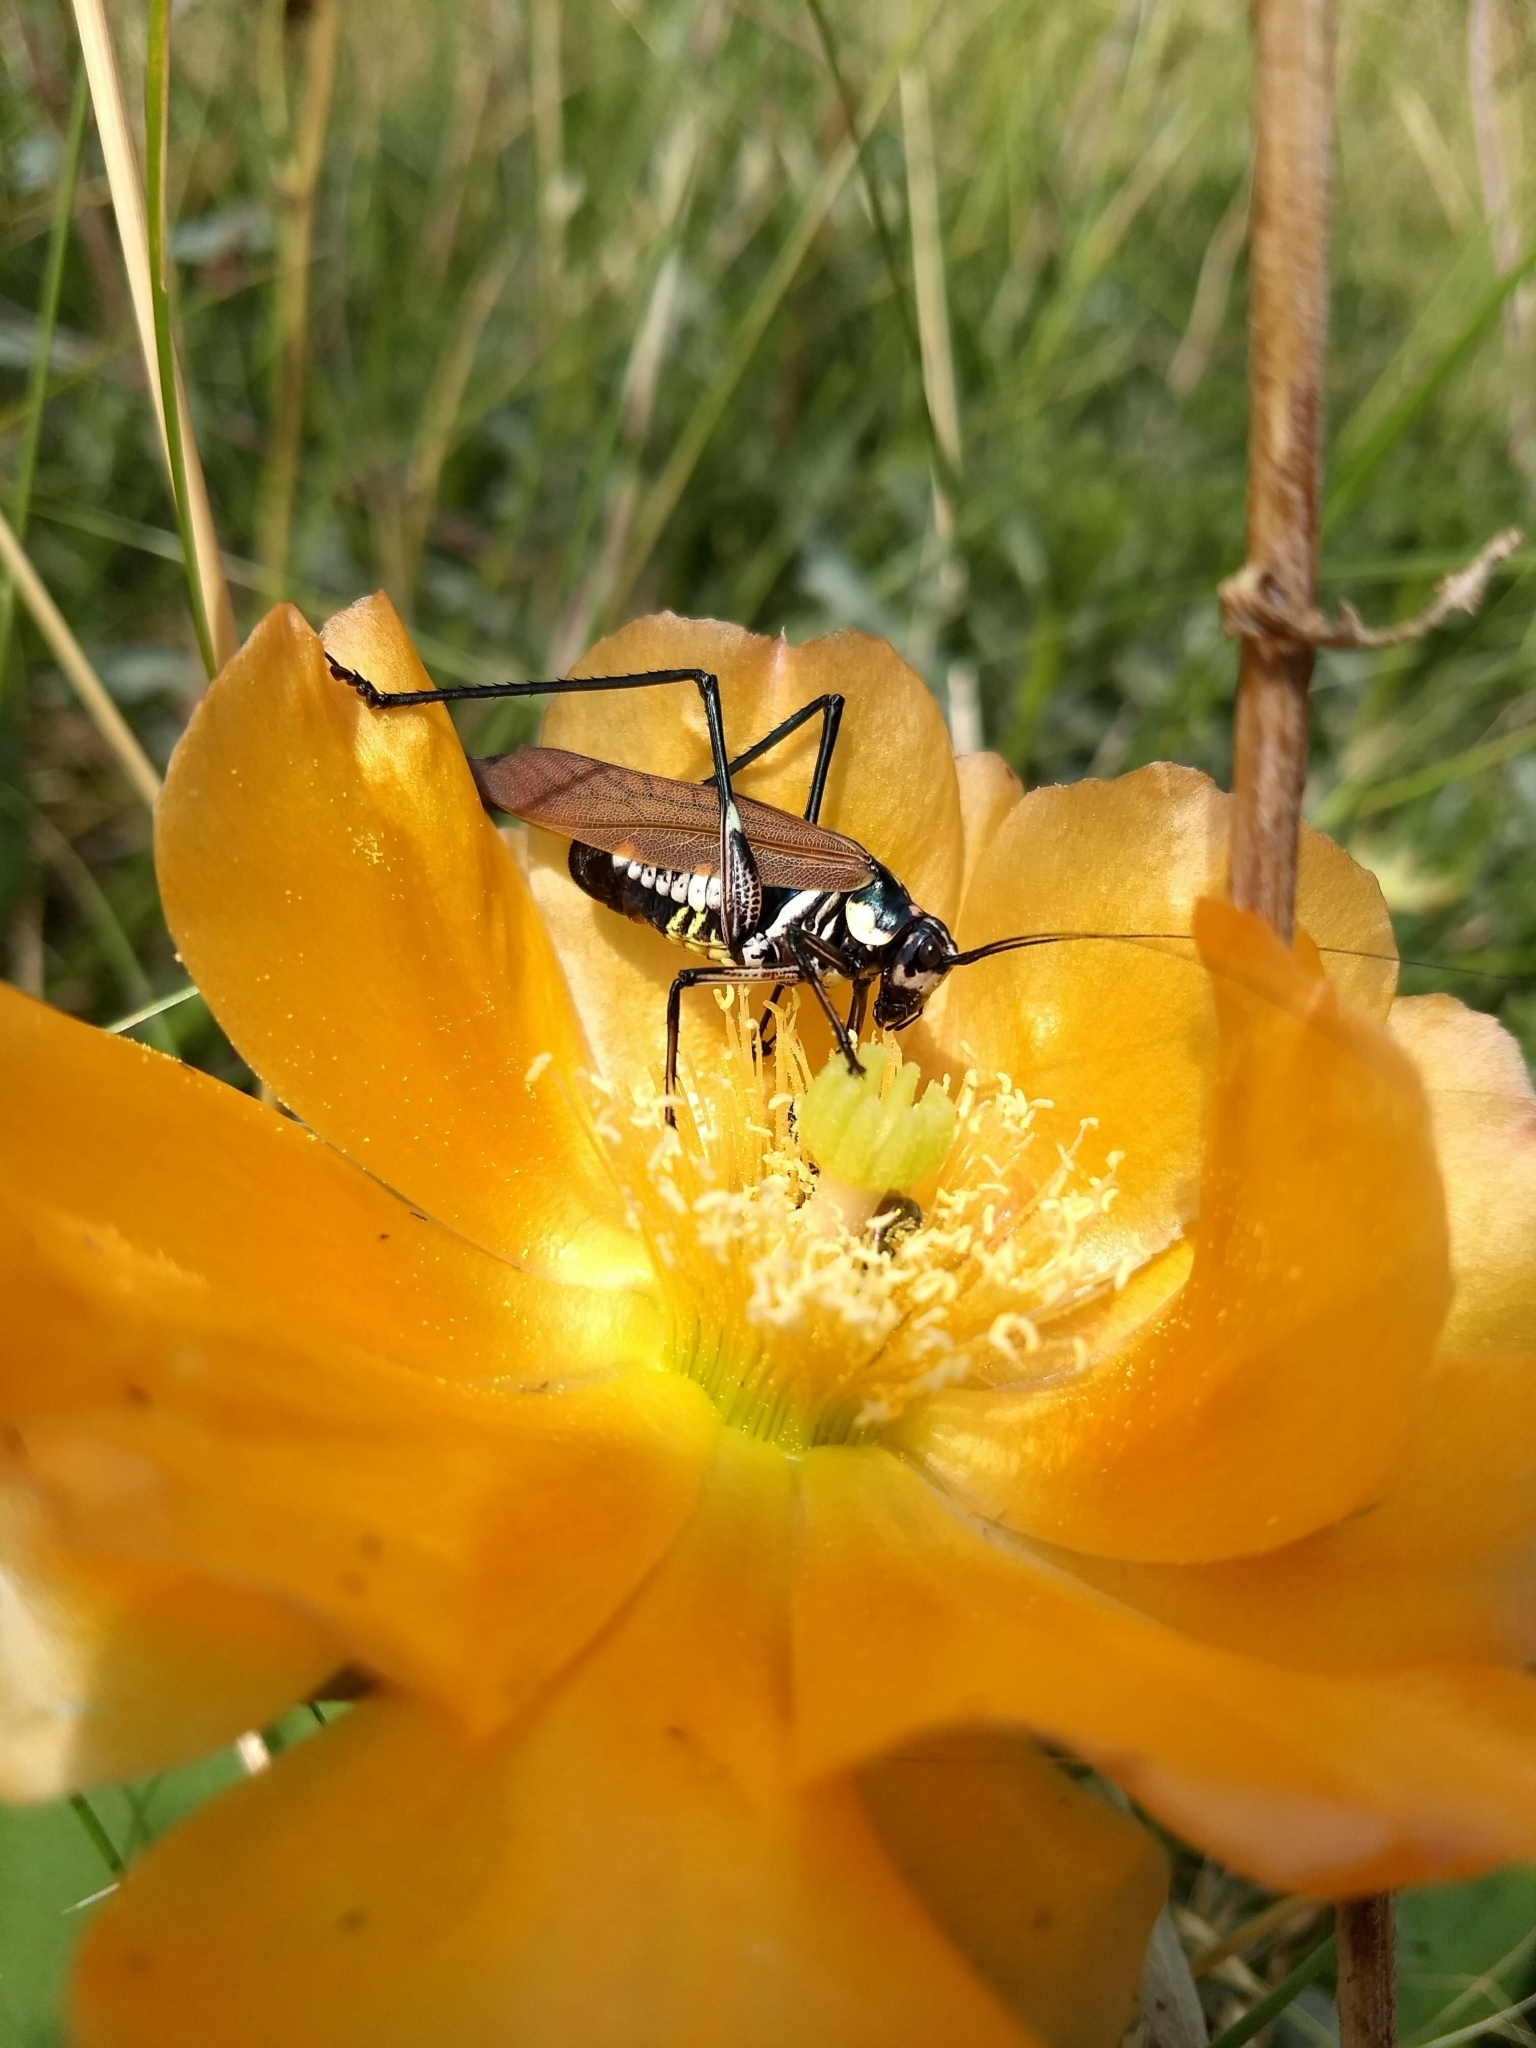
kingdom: Animalia
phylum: Arthropoda
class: Insecta
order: Orthoptera
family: Tettigoniidae
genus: Scaphura
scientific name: Scaphura elegans
